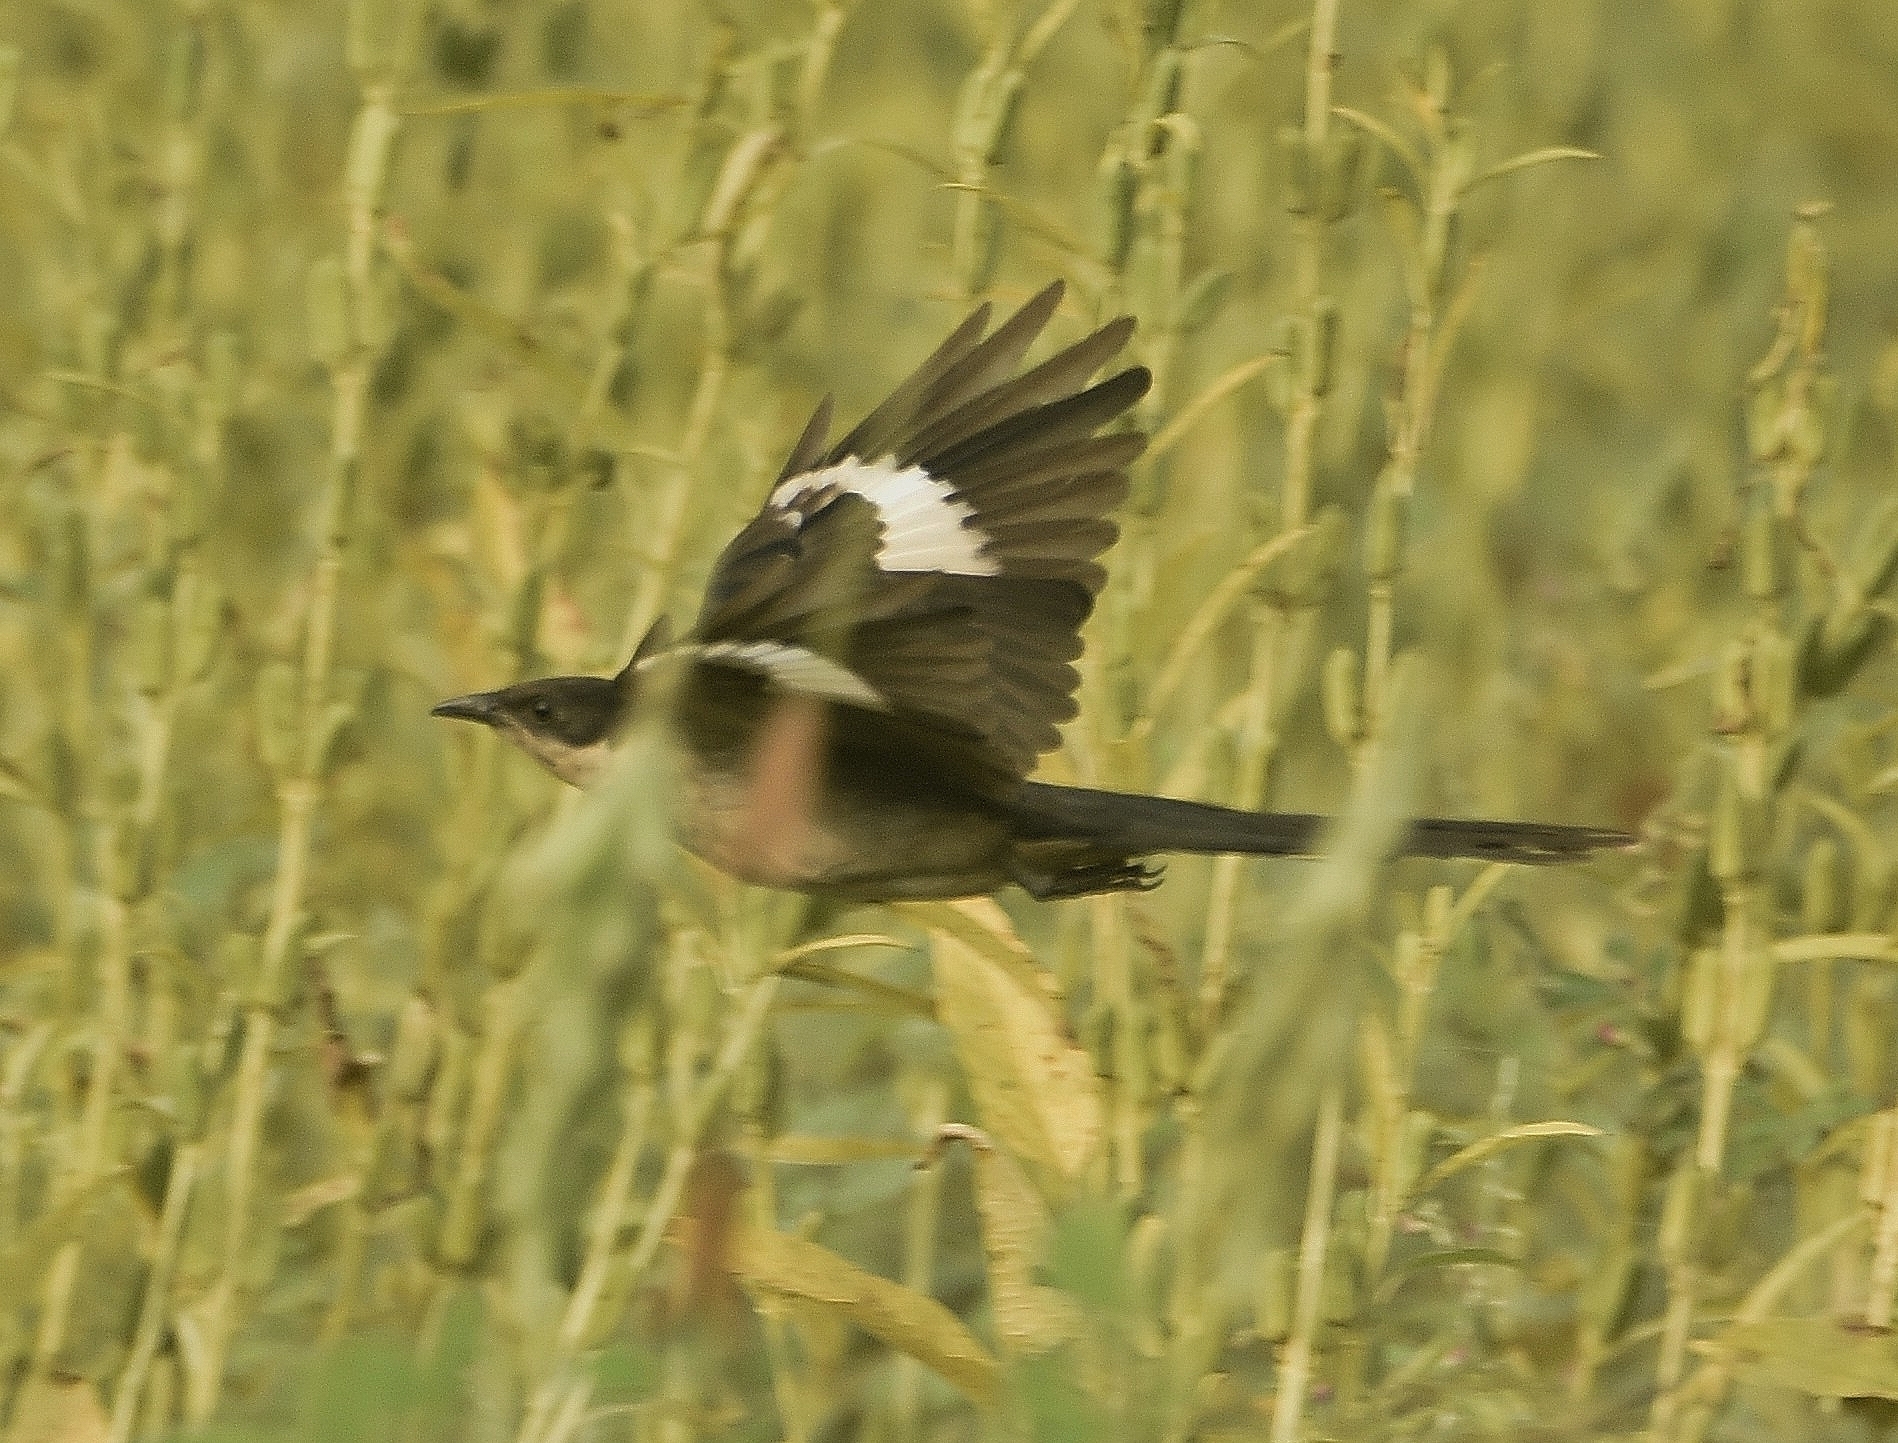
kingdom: Animalia
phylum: Chordata
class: Aves
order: Cuculiformes
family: Cuculidae
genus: Clamator
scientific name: Clamator jacobinus
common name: Jacobin cuckoo
